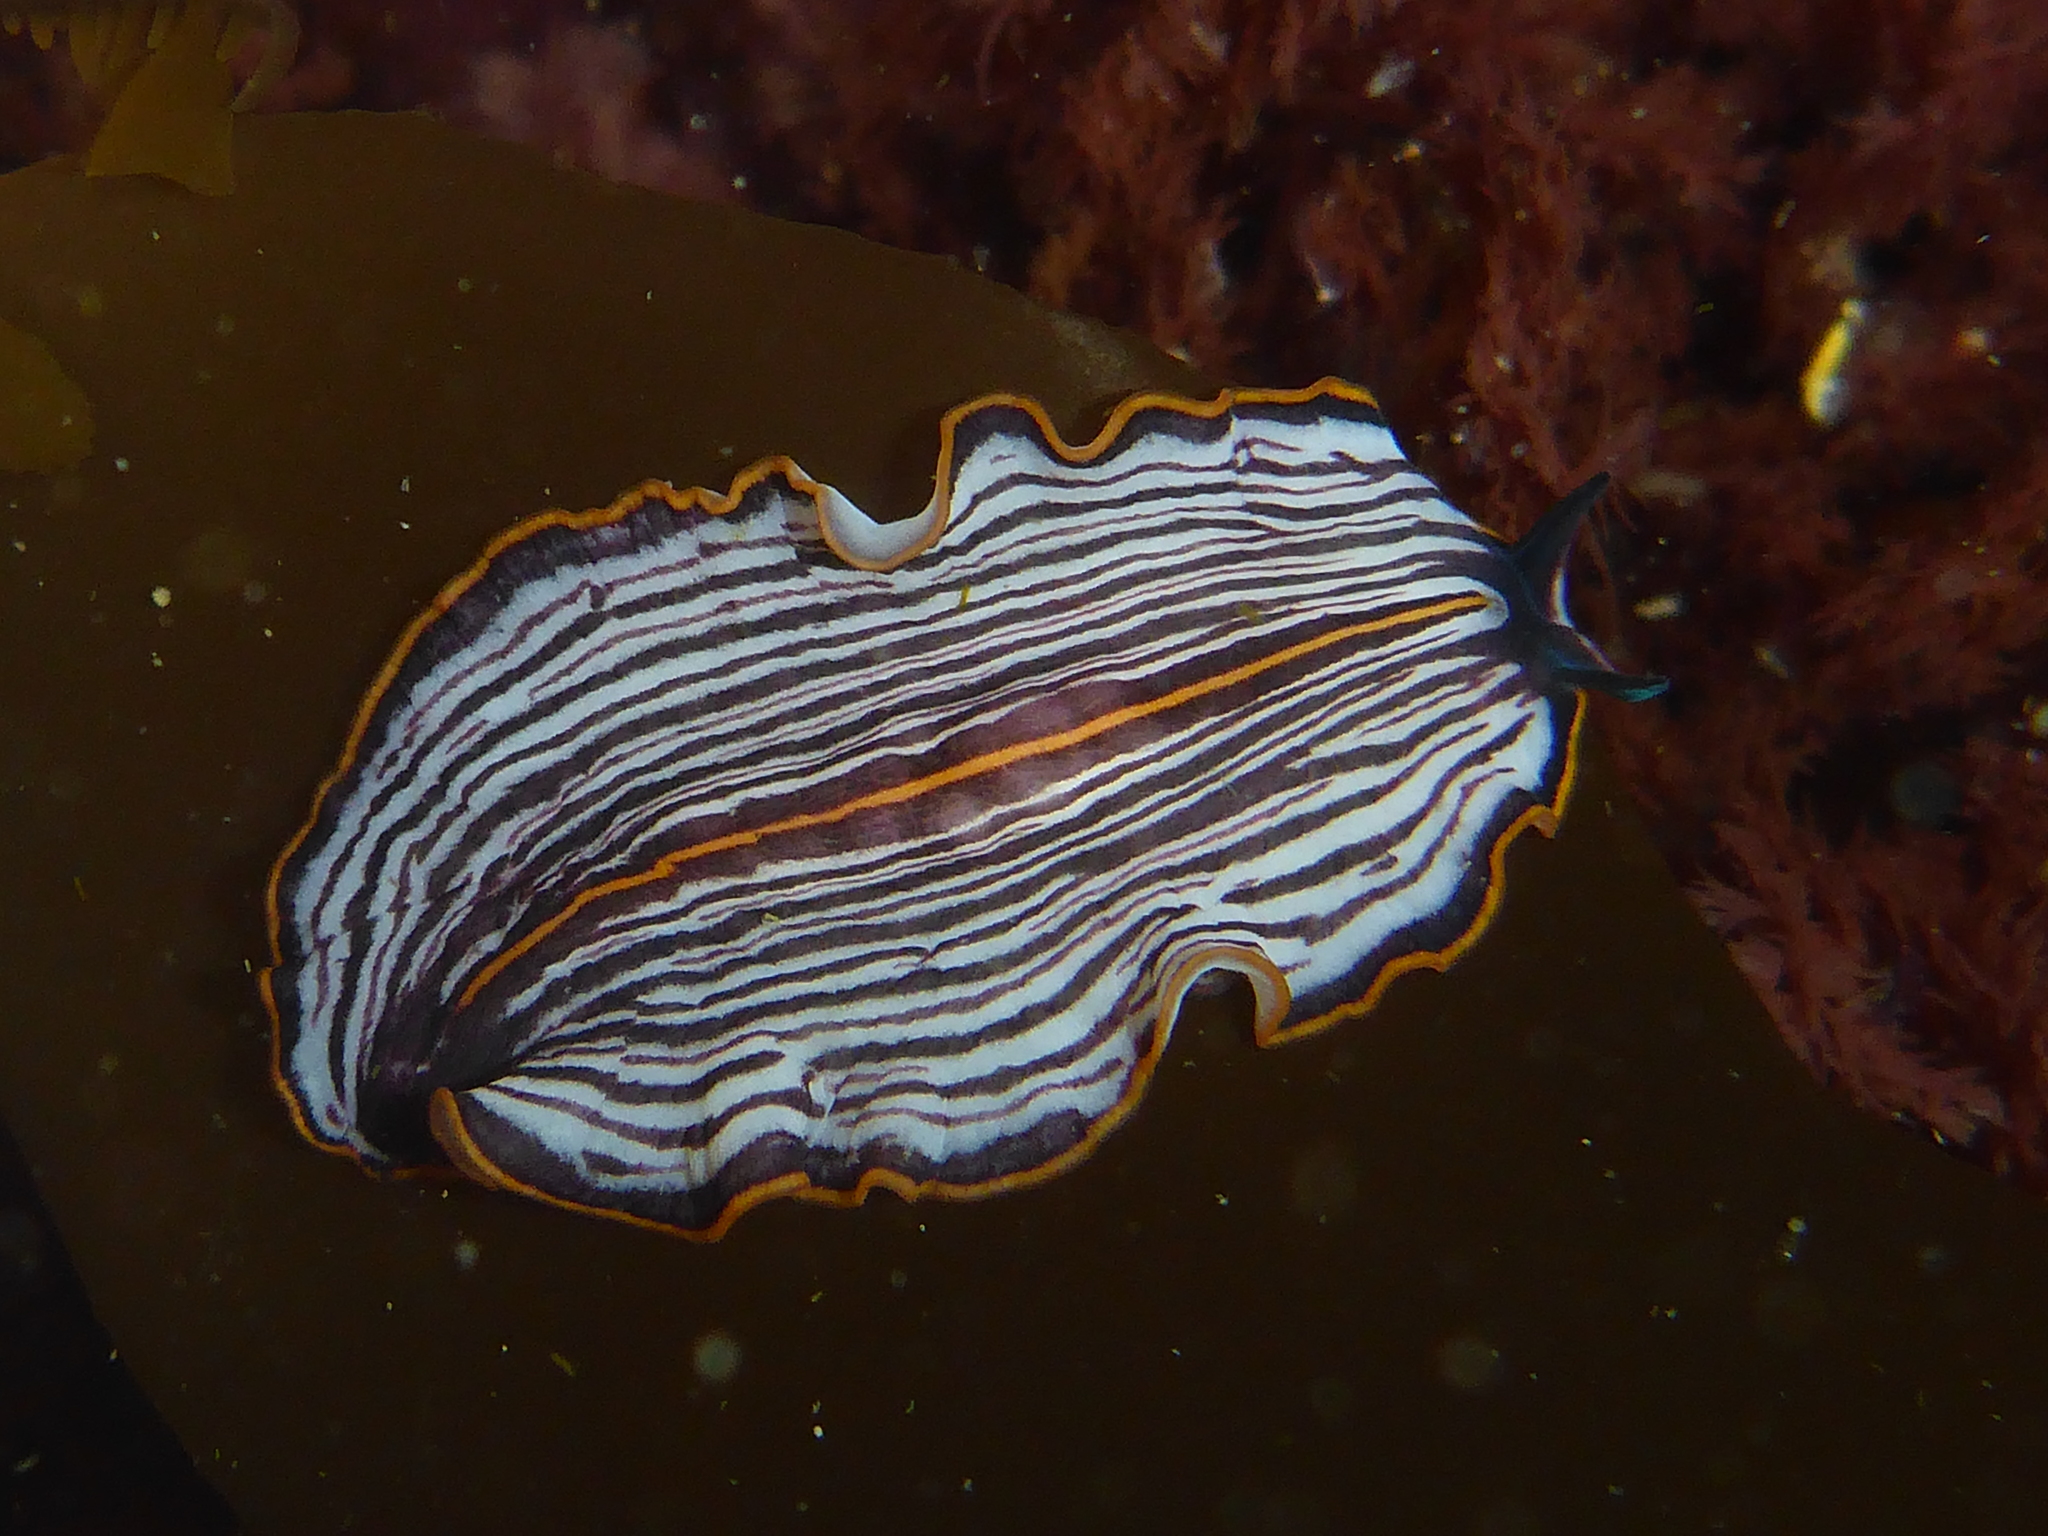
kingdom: Animalia
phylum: Platyhelminthes
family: Euryleptidae
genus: Praestheceraeus
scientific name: Praestheceraeus bellostriatus
